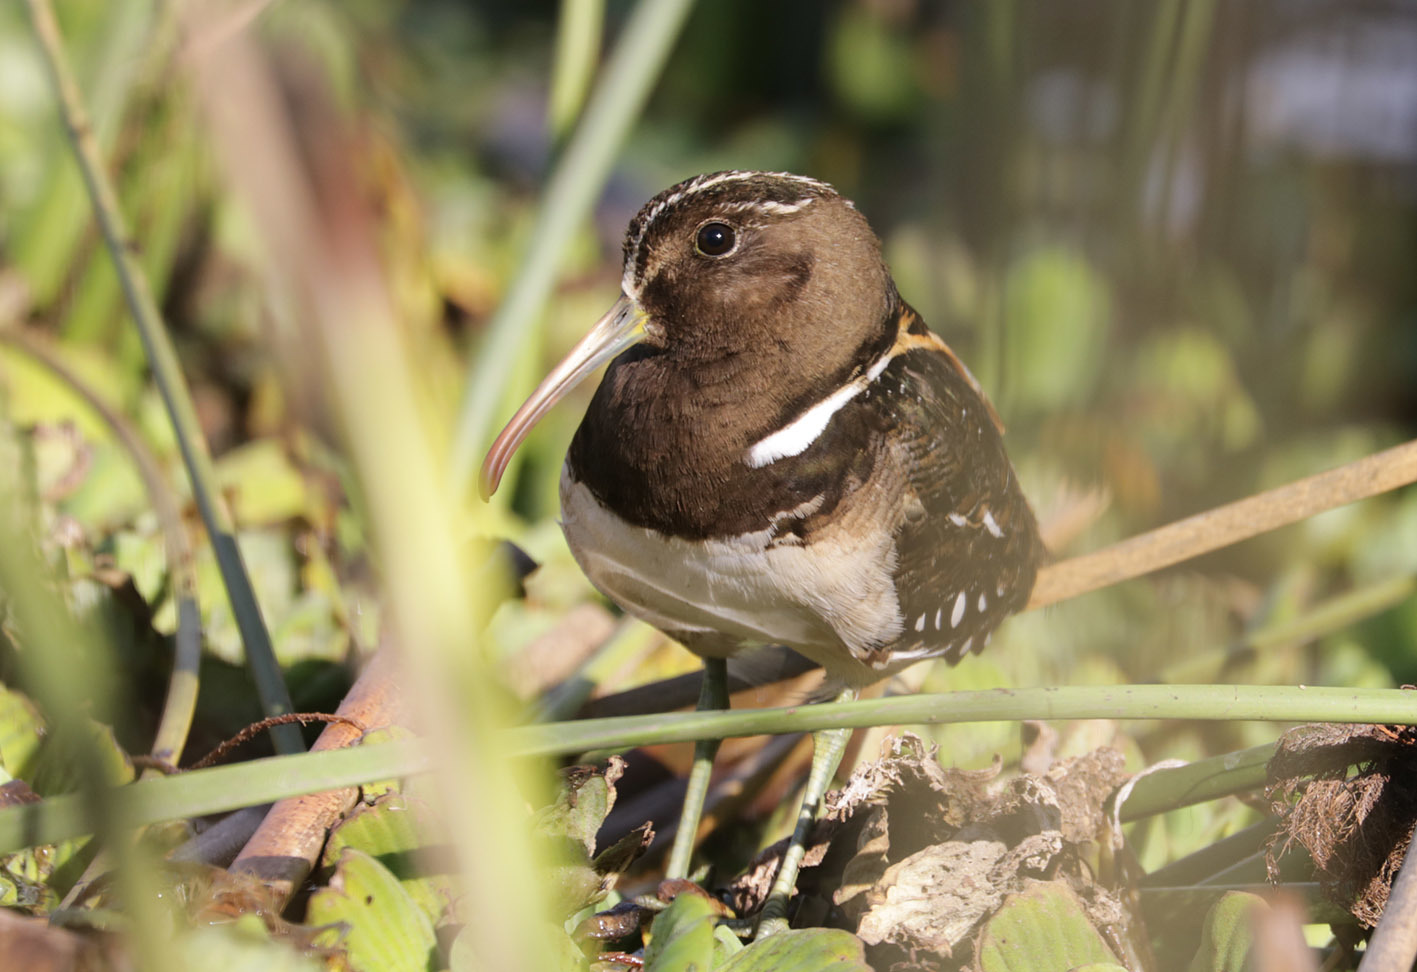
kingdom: Animalia
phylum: Chordata
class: Aves
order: Charadriiformes
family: Rostratulidae
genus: Nycticryphes
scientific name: Nycticryphes semicollaris
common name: South american painted-snipe
